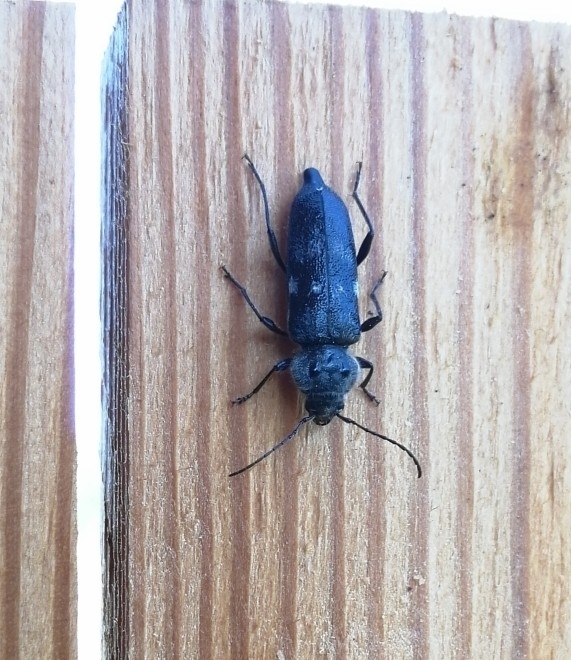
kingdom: Animalia
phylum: Arthropoda
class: Insecta
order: Coleoptera
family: Cerambycidae
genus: Hylotrupes
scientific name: Hylotrupes bajulus
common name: Old house borer
